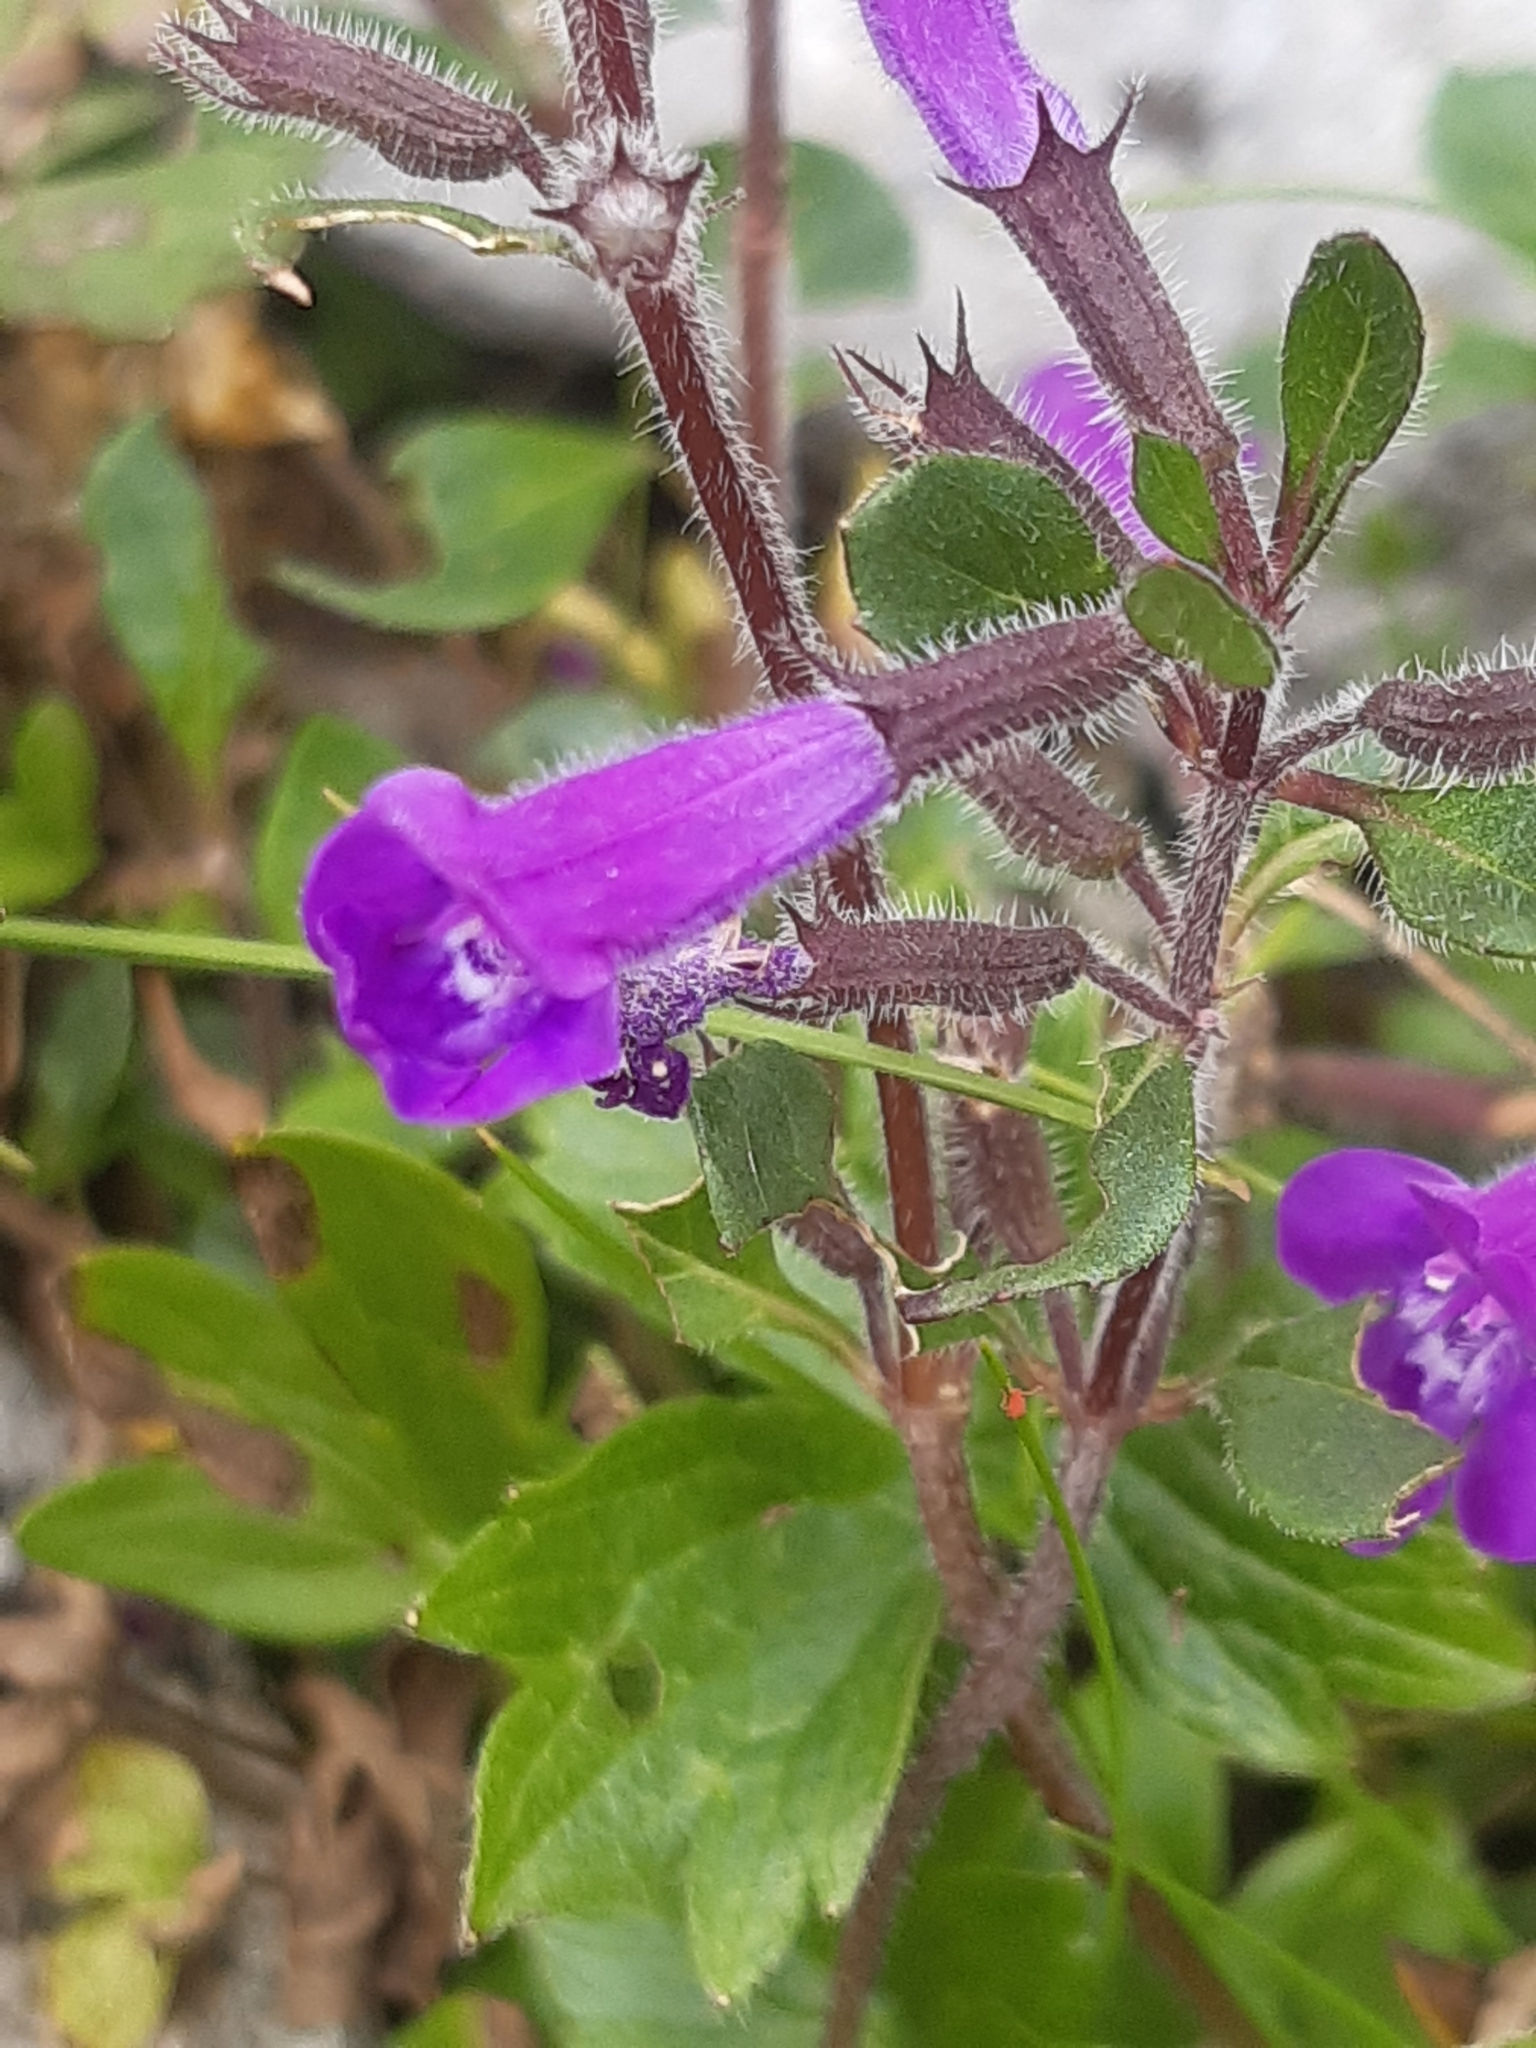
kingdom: Plantae
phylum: Tracheophyta
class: Magnoliopsida
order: Lamiales
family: Lamiaceae
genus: Clinopodium
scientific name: Clinopodium alpinum
